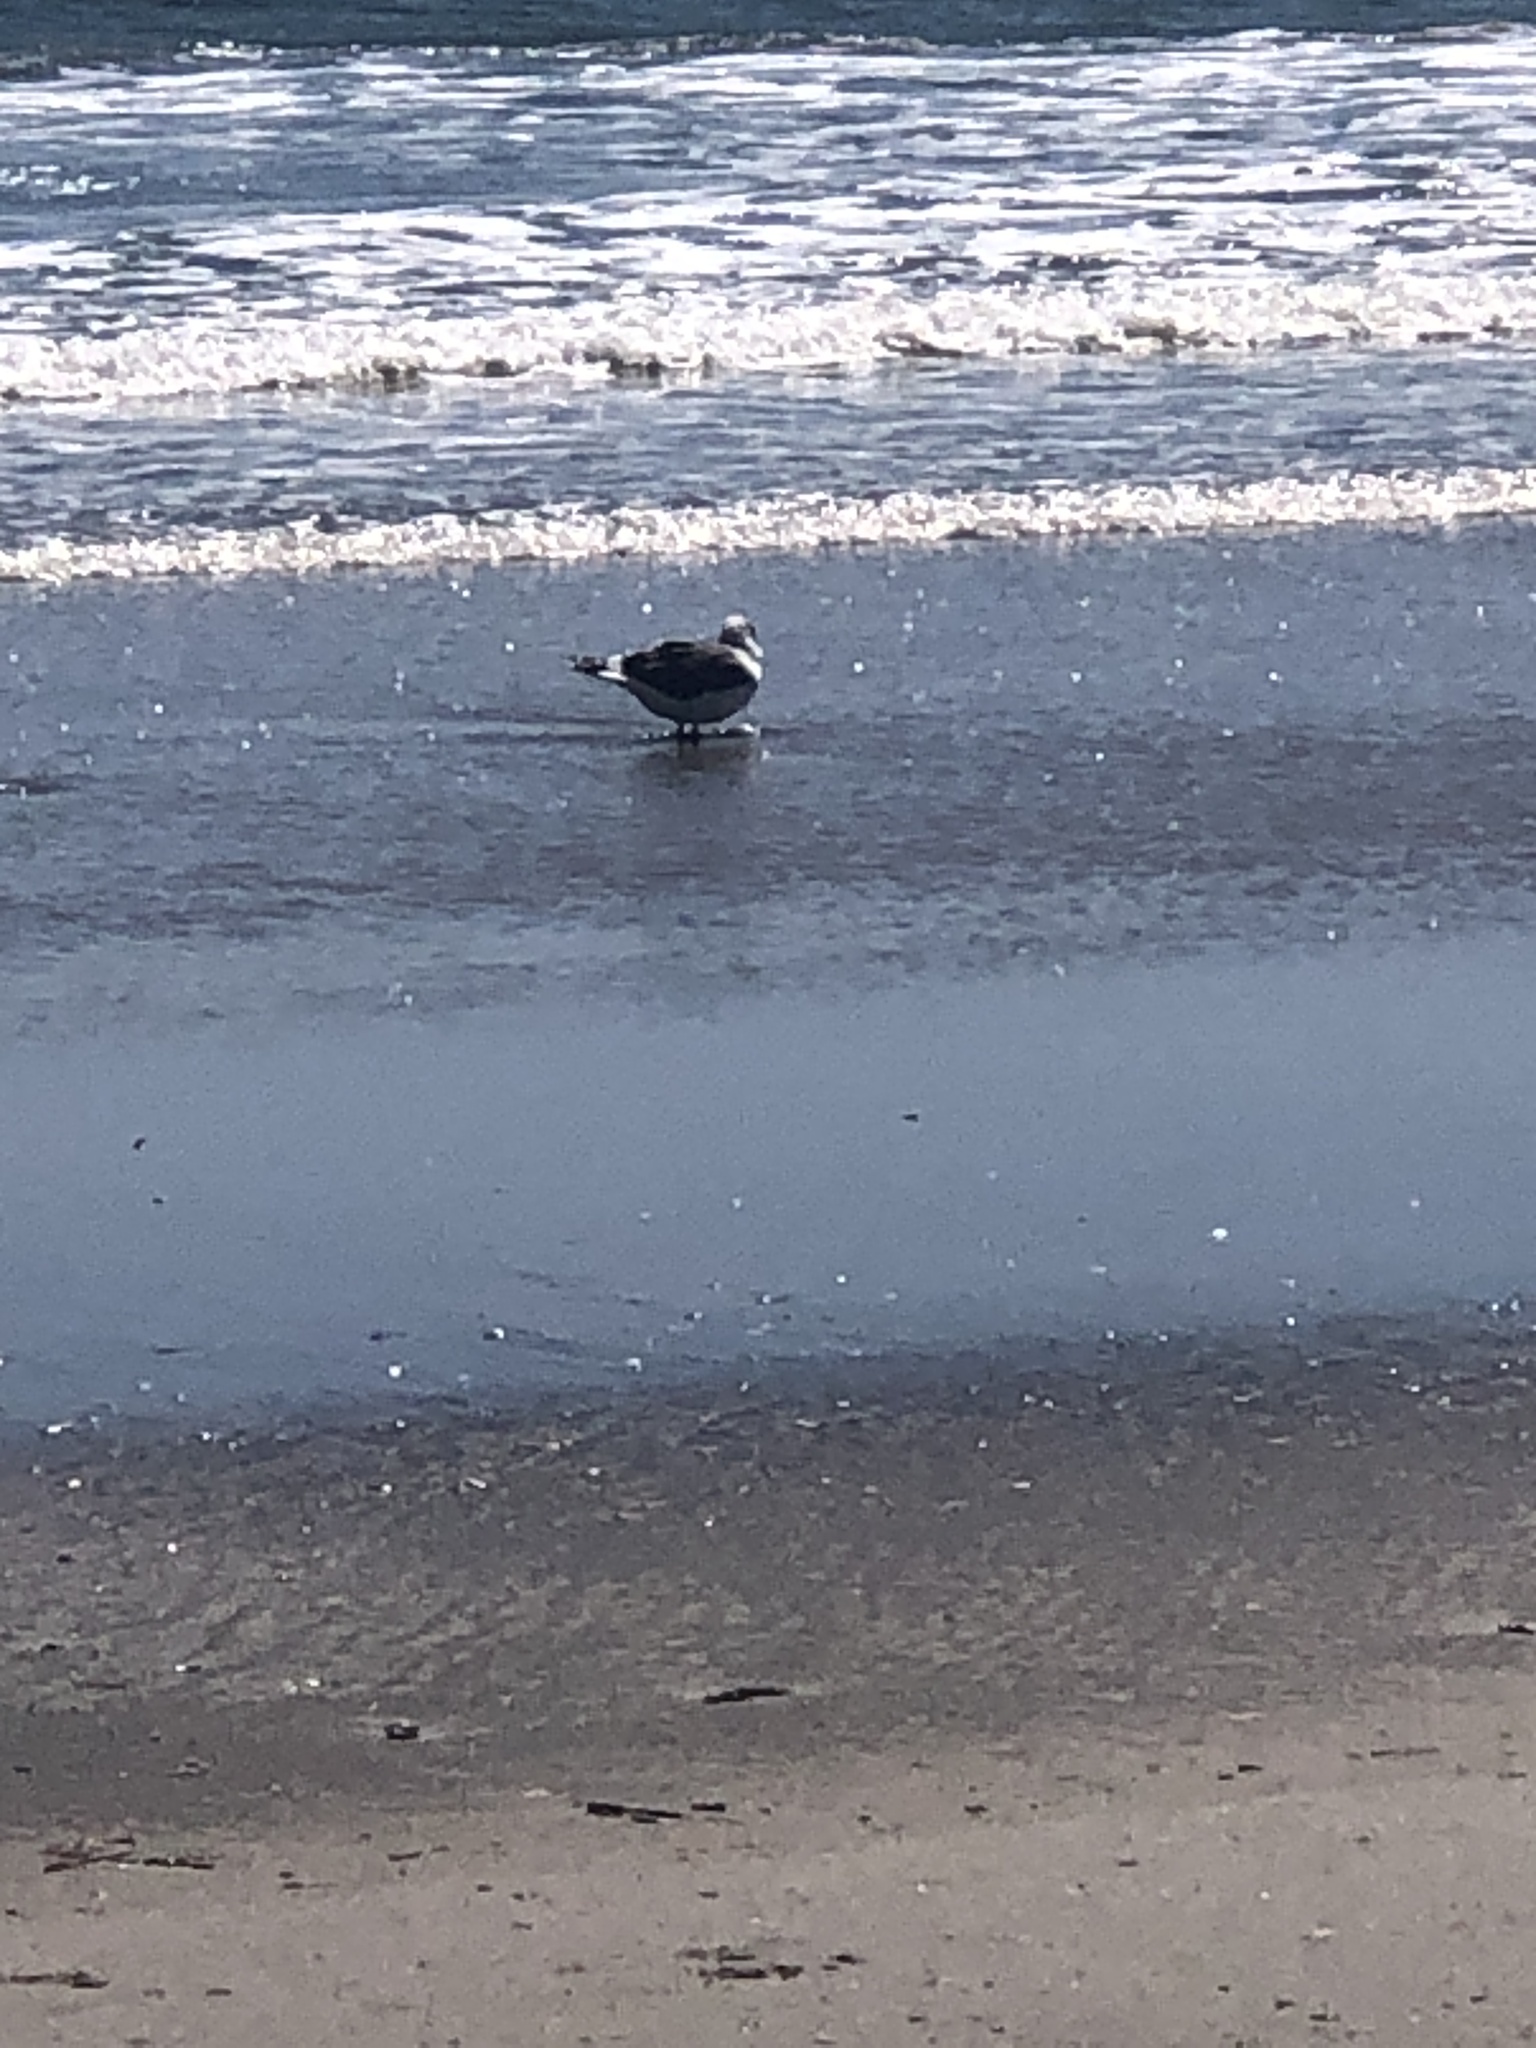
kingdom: Animalia
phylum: Chordata
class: Aves
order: Charadriiformes
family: Laridae
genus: Leucophaeus
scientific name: Leucophaeus atricilla
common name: Laughing gull
